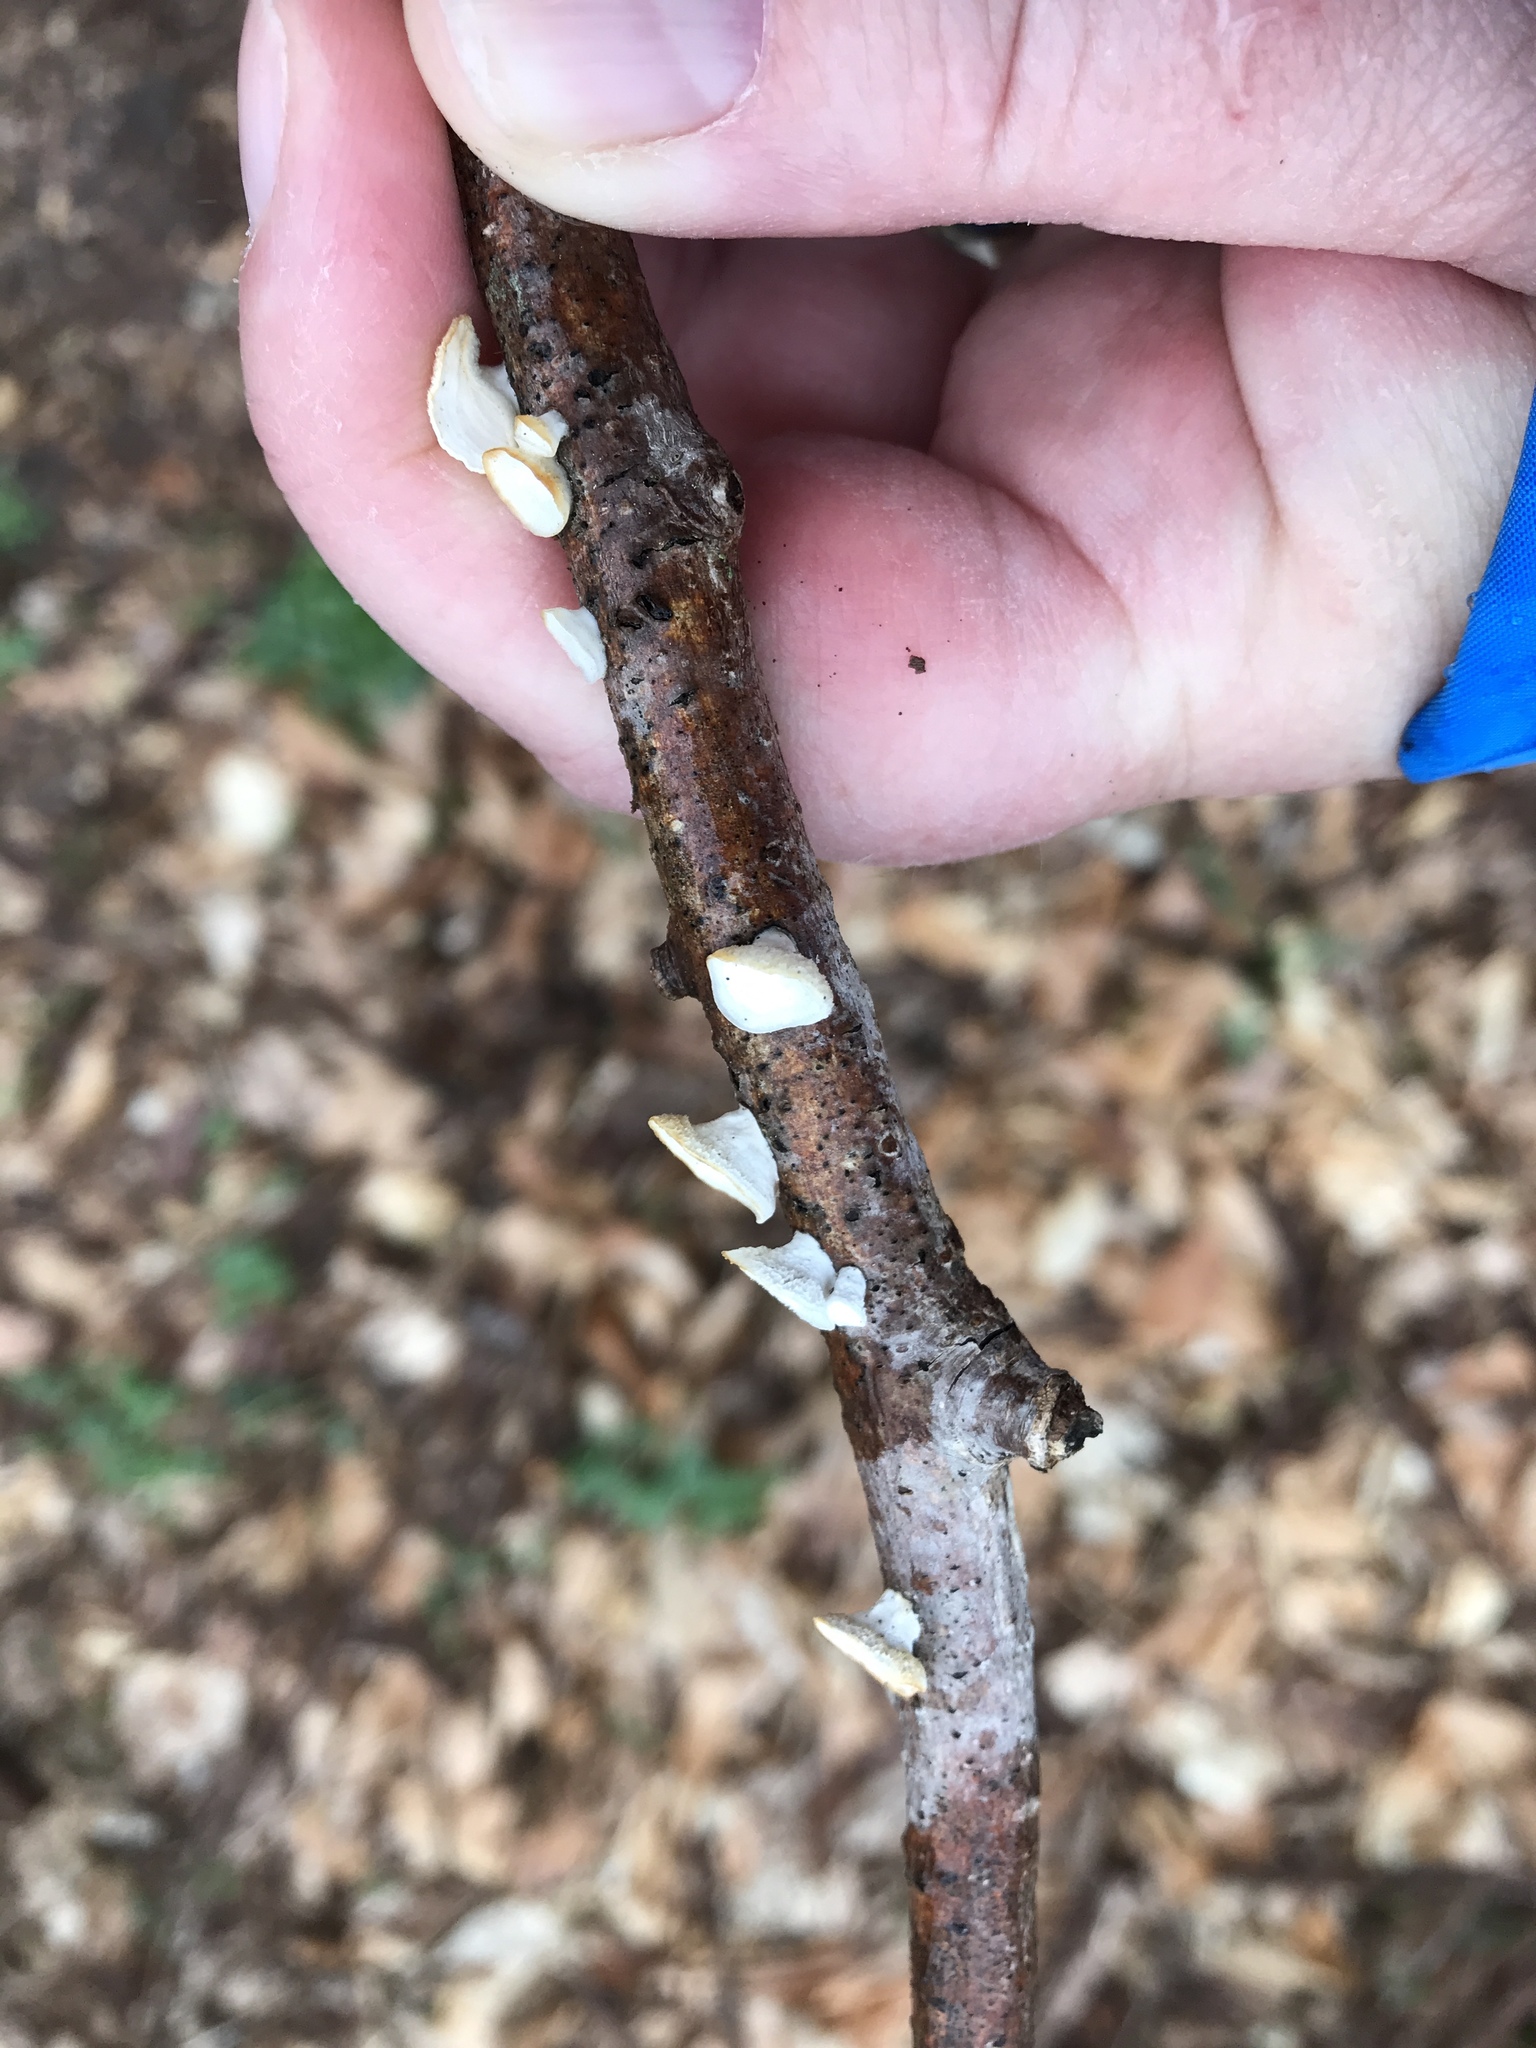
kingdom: Fungi
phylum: Basidiomycota
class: Agaricomycetes
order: Polyporales
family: Polyporaceae
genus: Poronidulus
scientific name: Poronidulus conchifer
